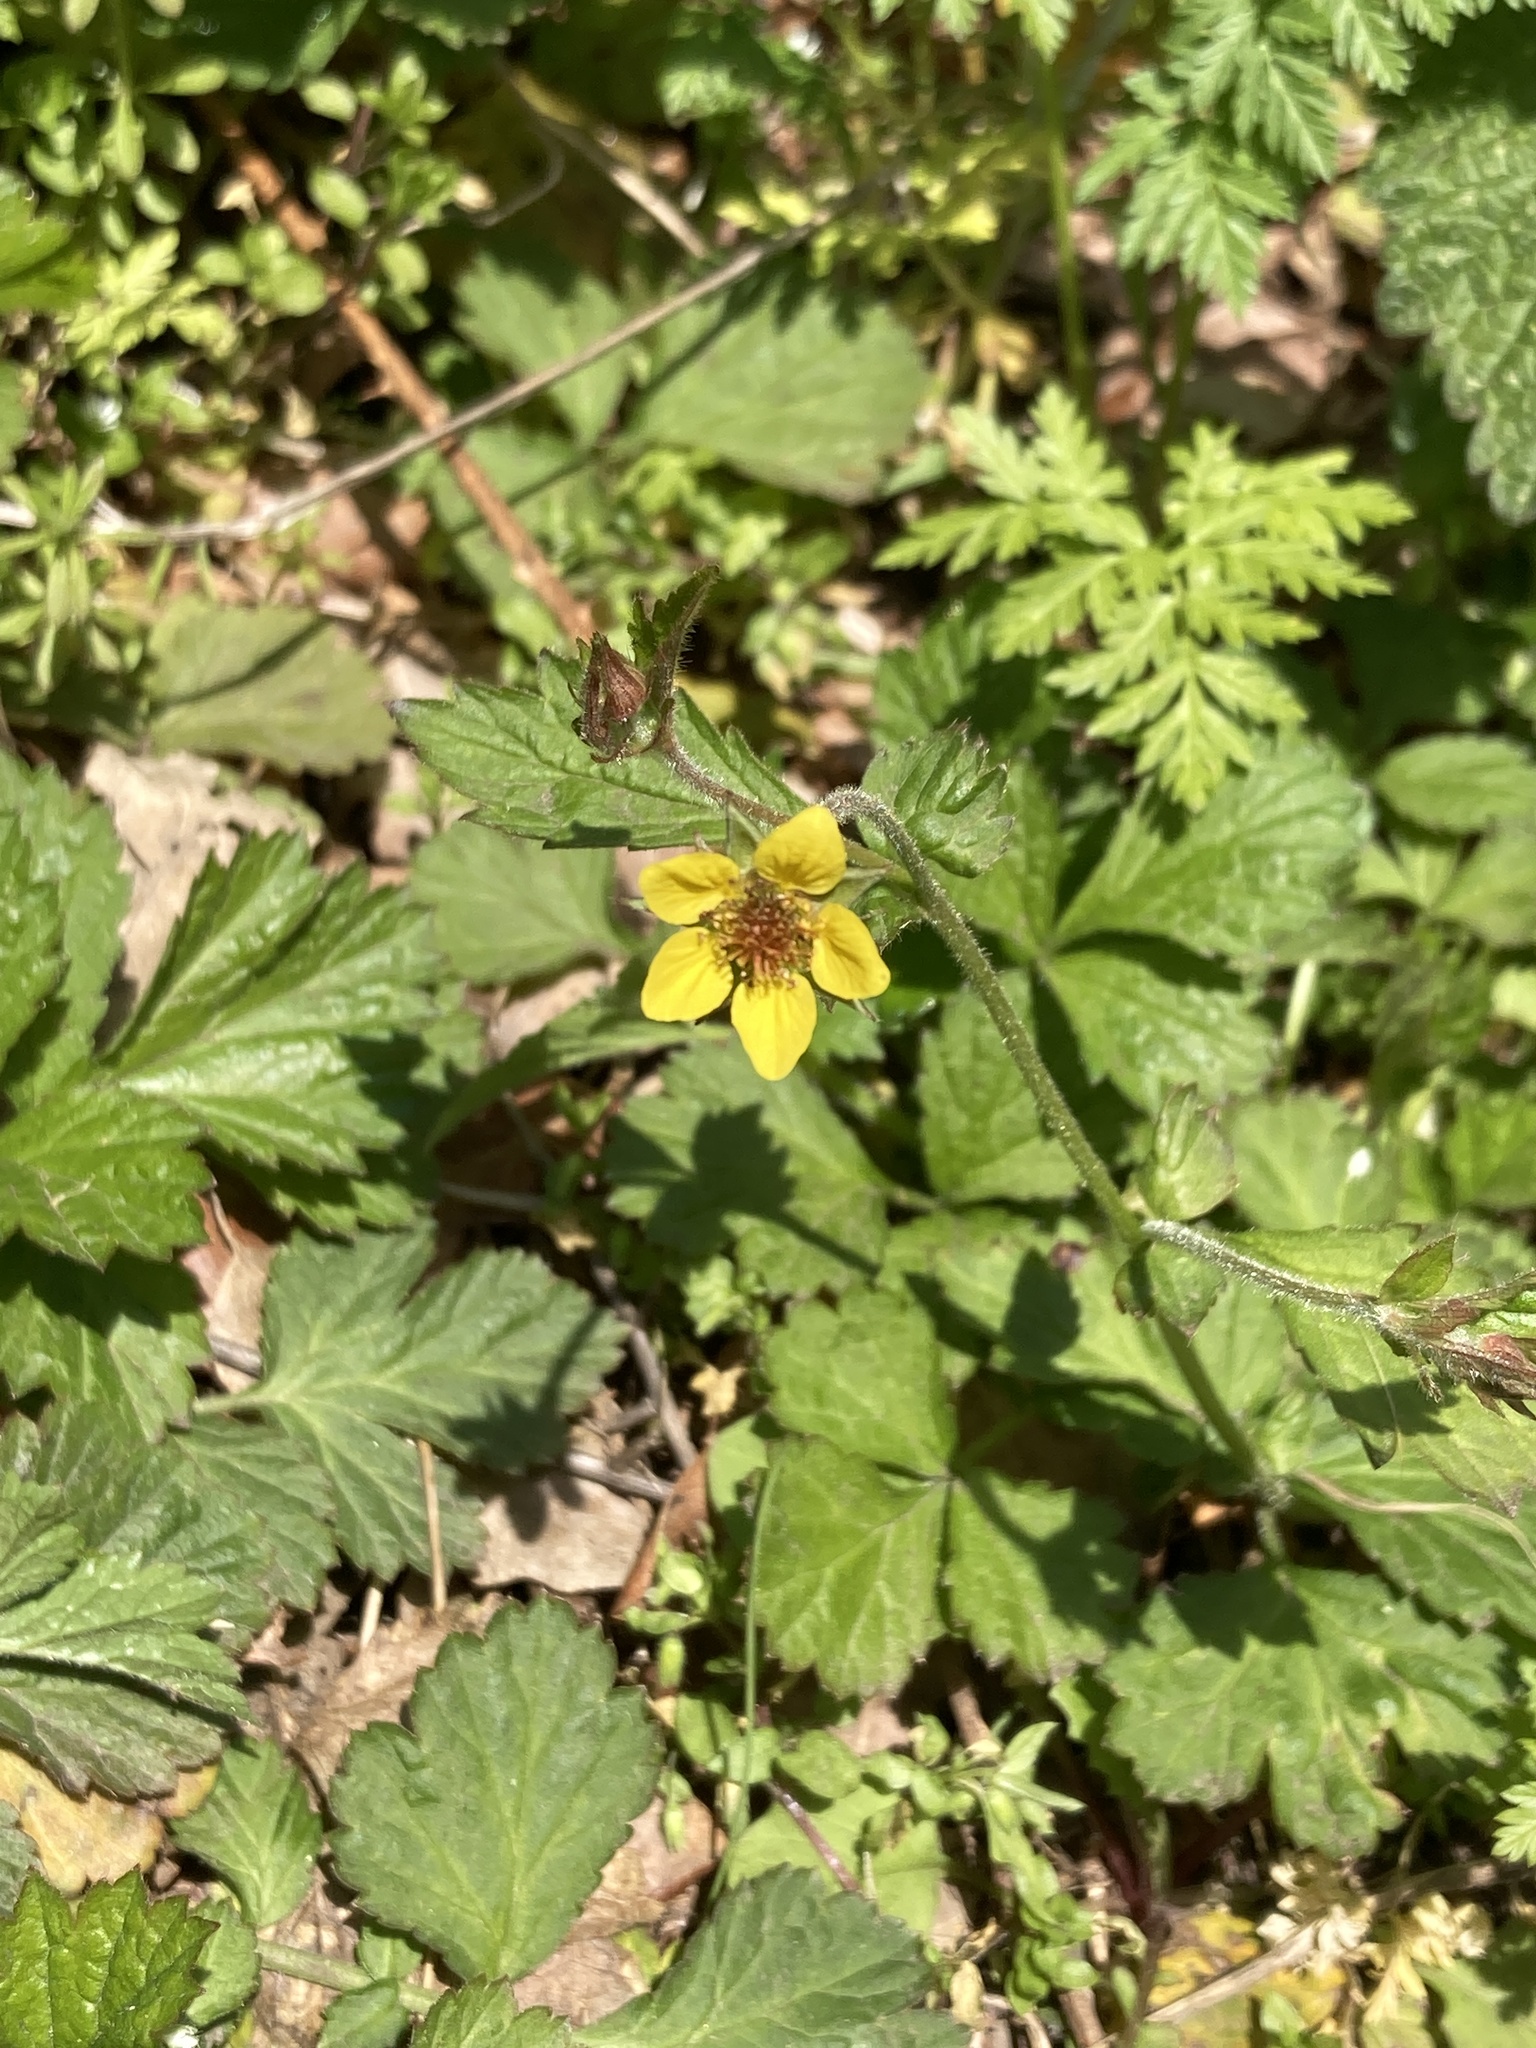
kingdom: Plantae
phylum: Tracheophyta
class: Magnoliopsida
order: Rosales
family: Rosaceae
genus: Geum
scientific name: Geum urbanum
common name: Wood avens
